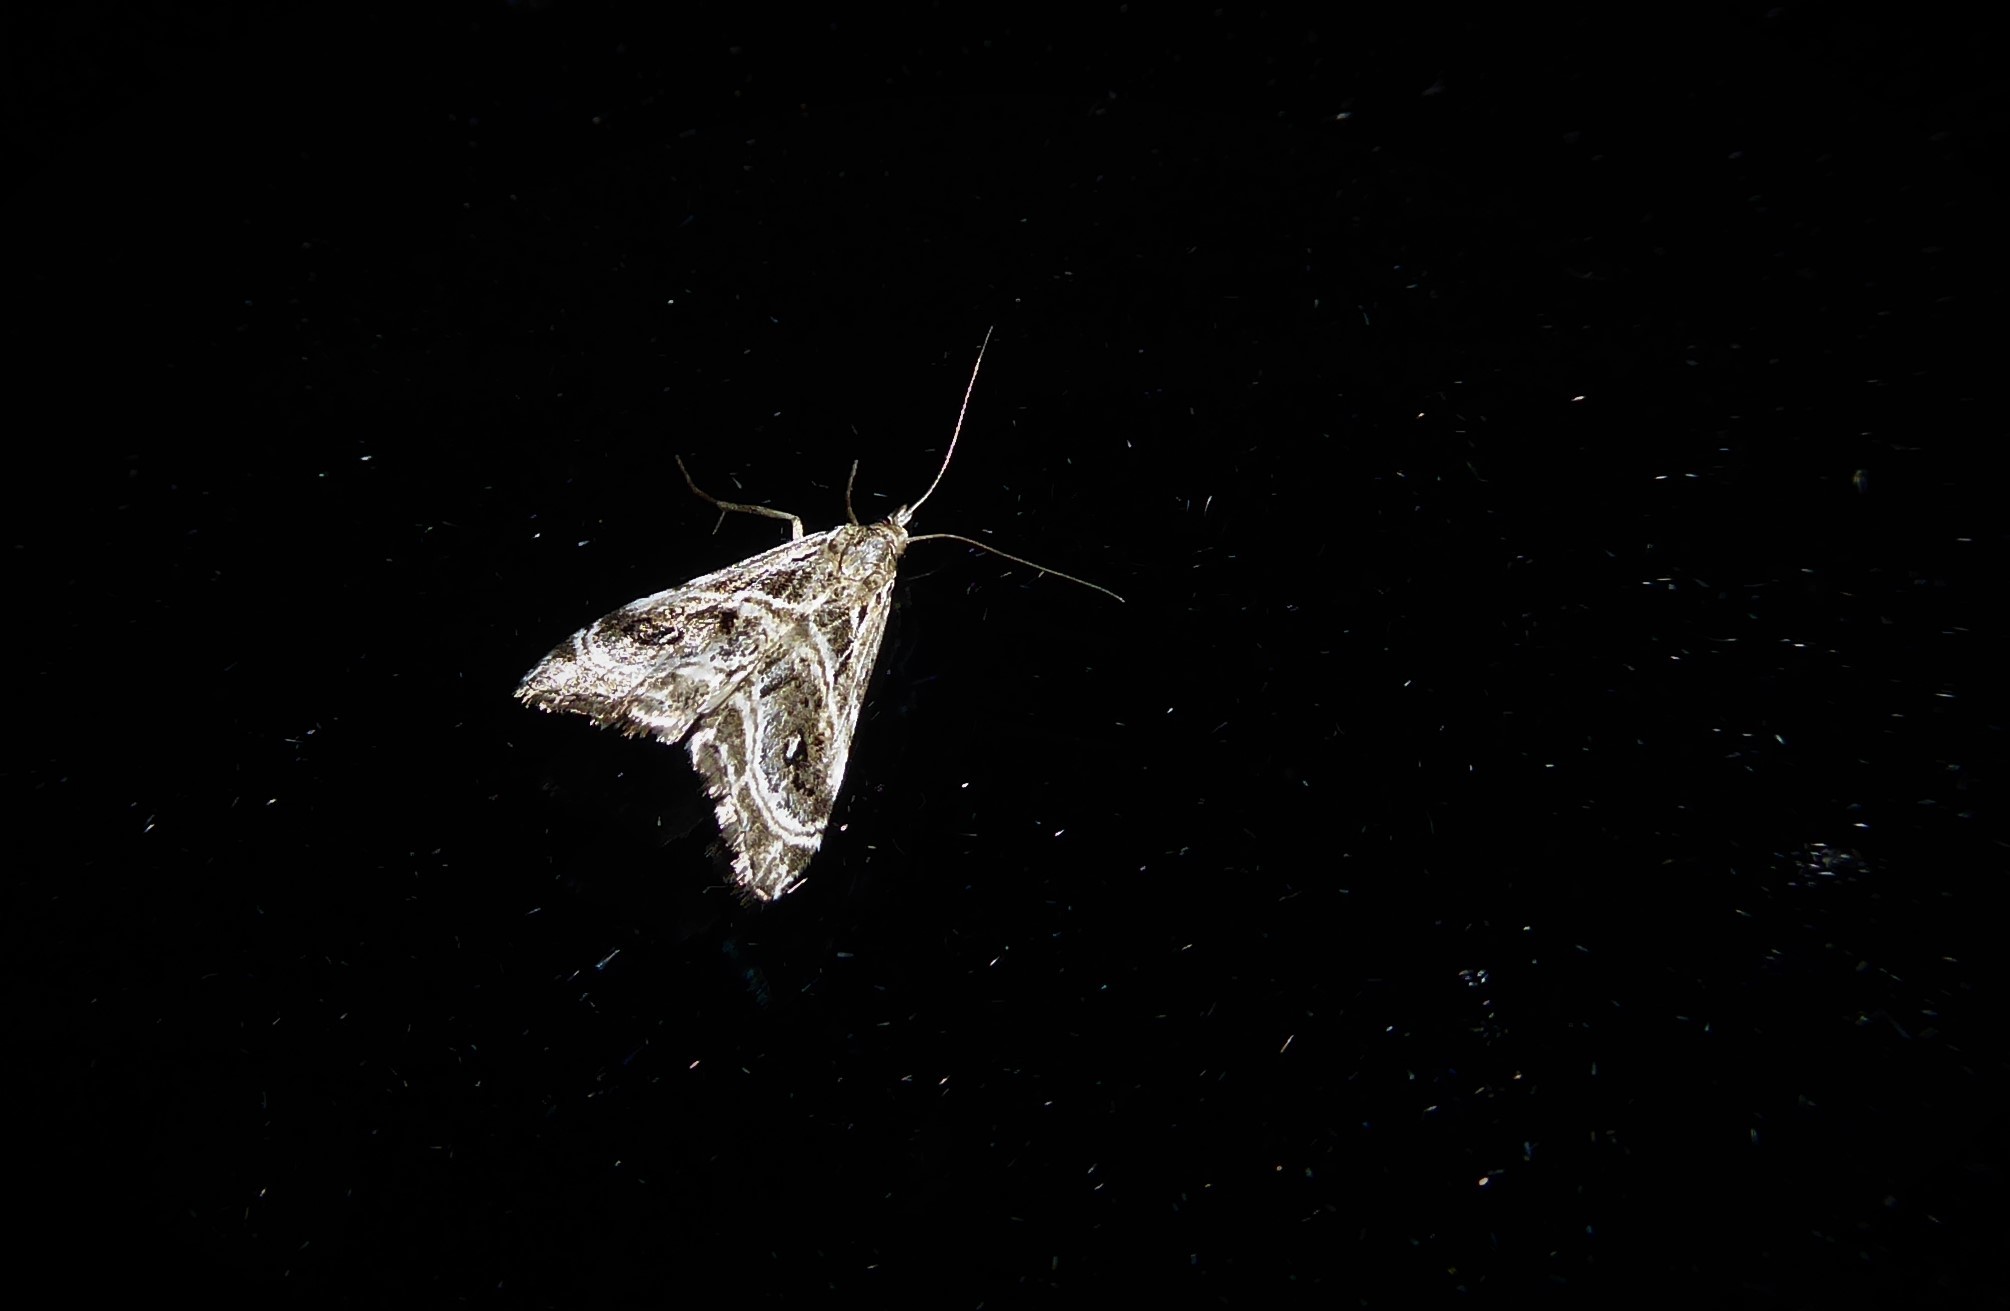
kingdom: Animalia
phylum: Arthropoda
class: Insecta
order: Lepidoptera
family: Crambidae
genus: Gadira
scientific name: Gadira acerella
